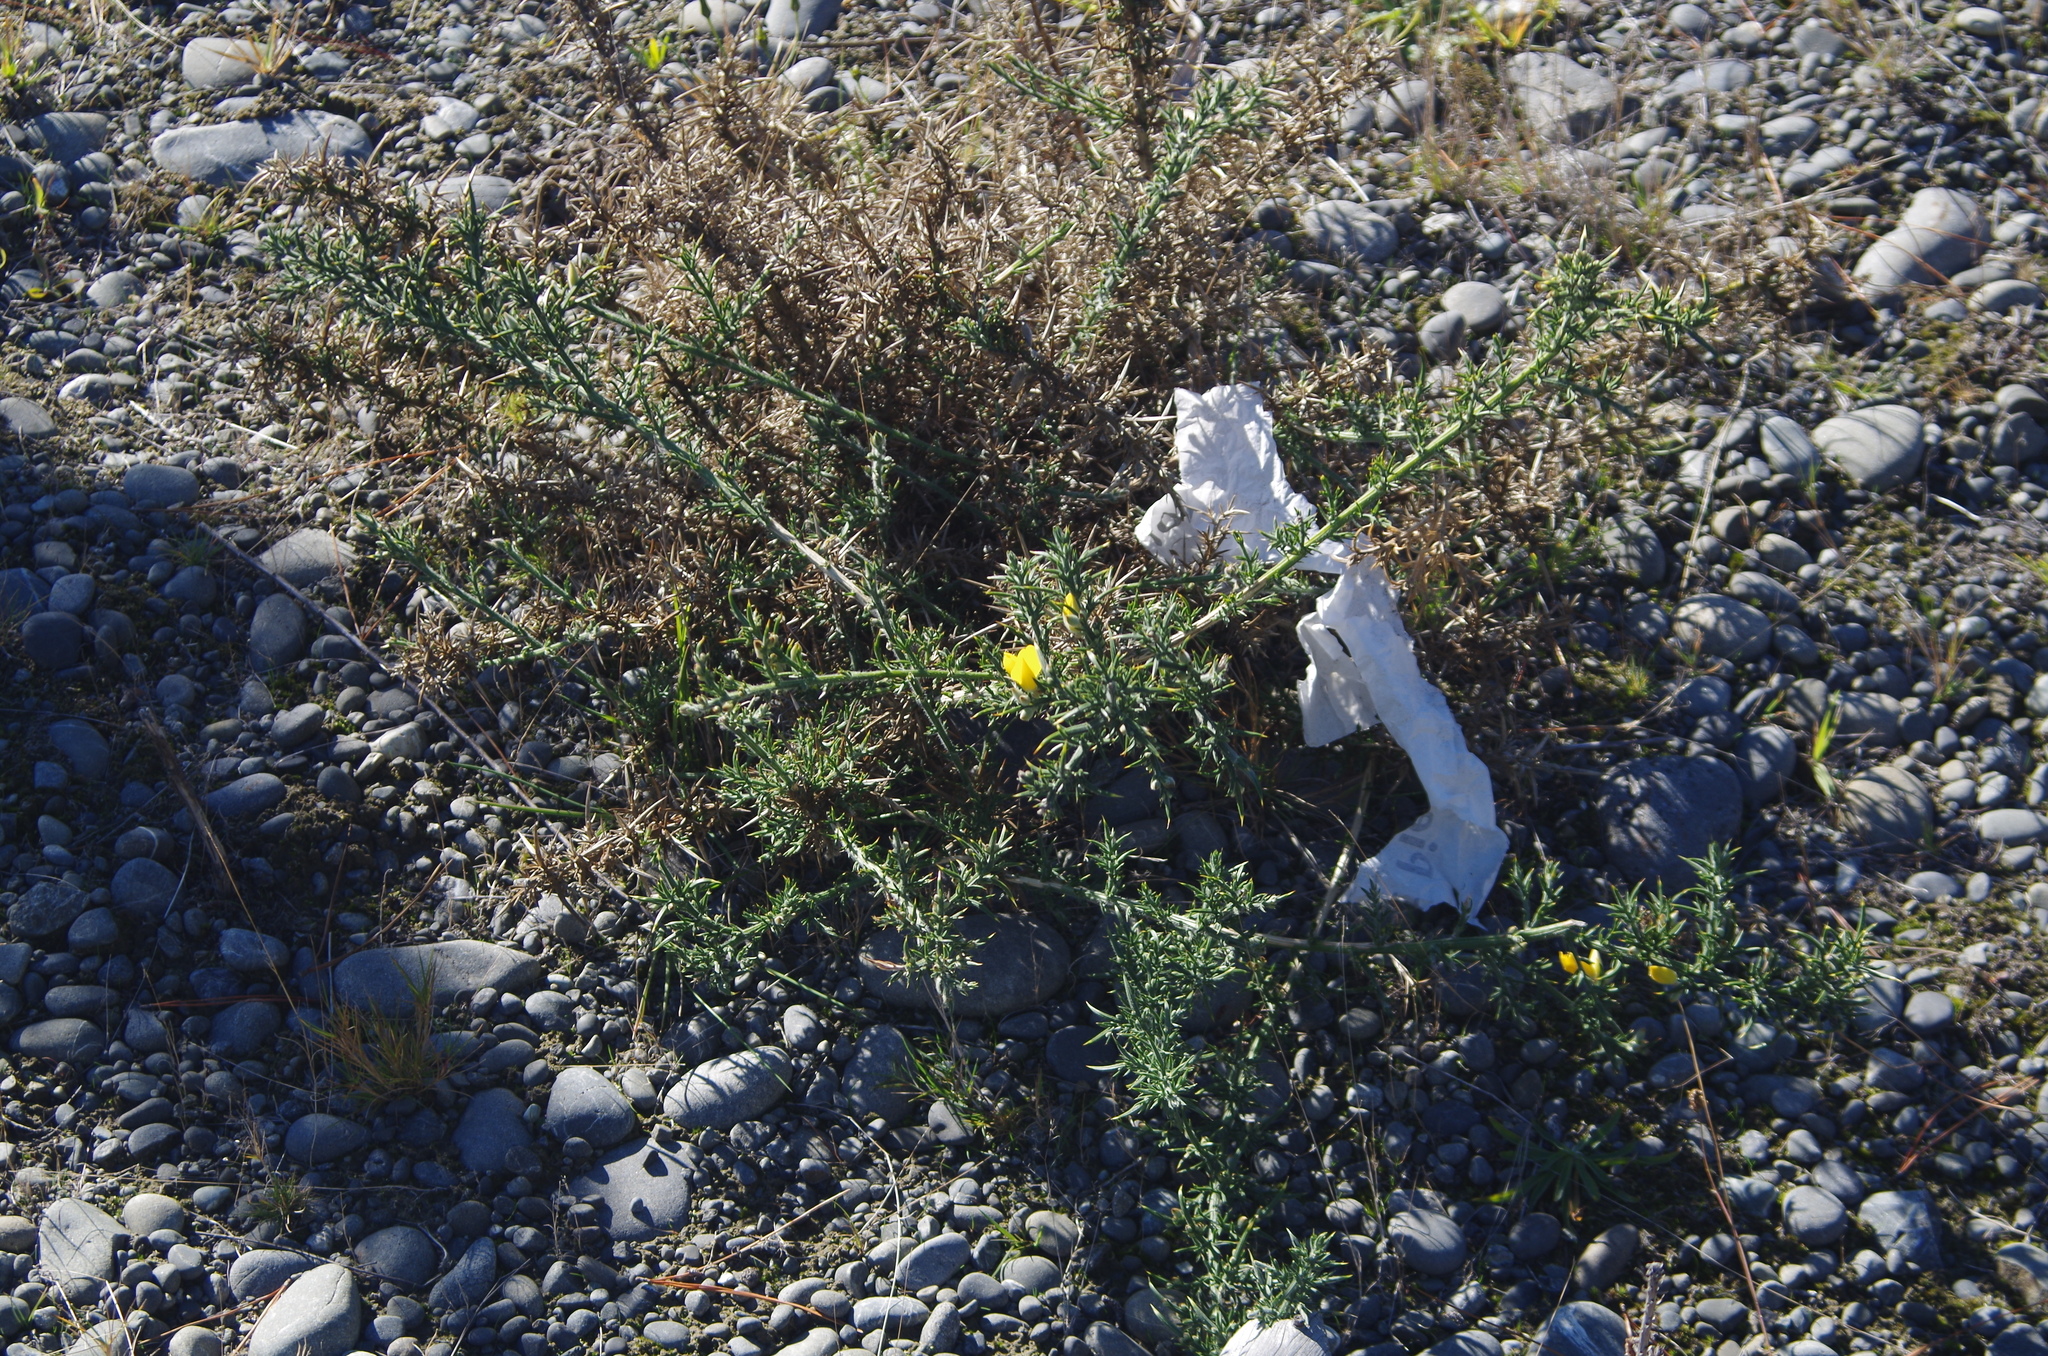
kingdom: Plantae
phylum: Tracheophyta
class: Magnoliopsida
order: Fabales
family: Fabaceae
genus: Ulex
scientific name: Ulex europaeus
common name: Common gorse
